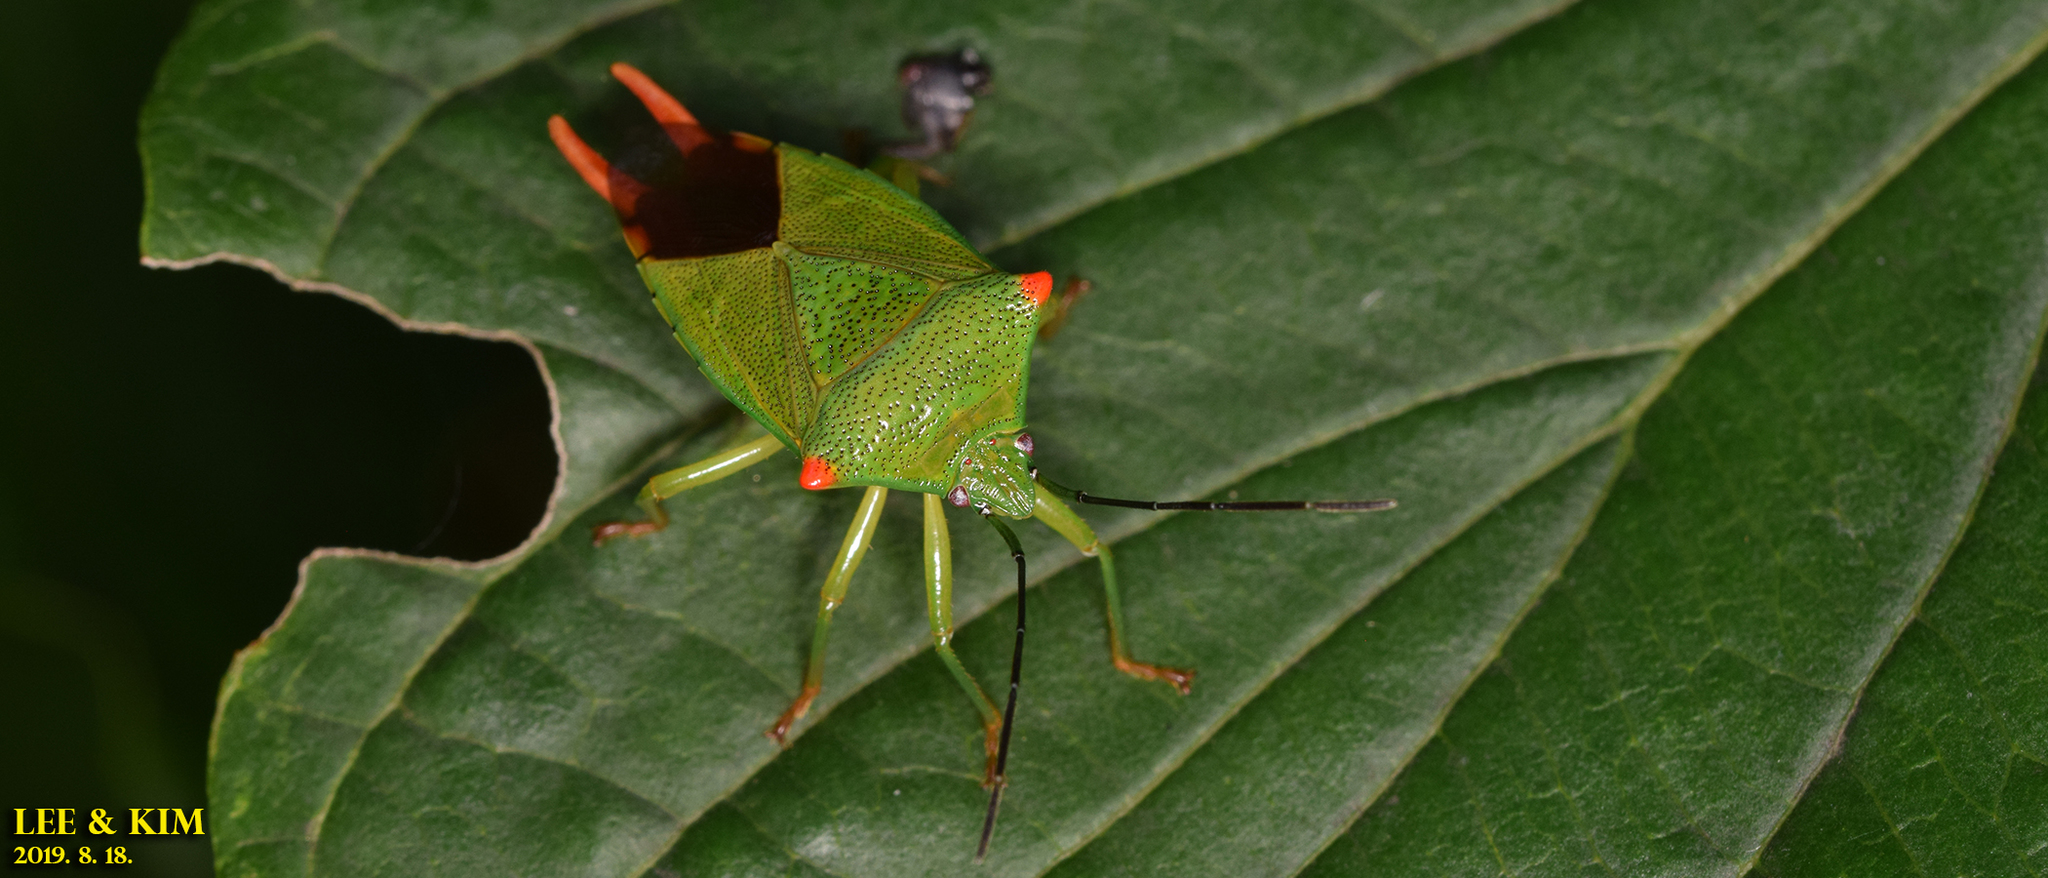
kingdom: Animalia
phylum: Arthropoda
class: Insecta
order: Hemiptera
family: Acanthosomatidae
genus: Acanthosoma
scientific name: Acanthosoma labiduroides
